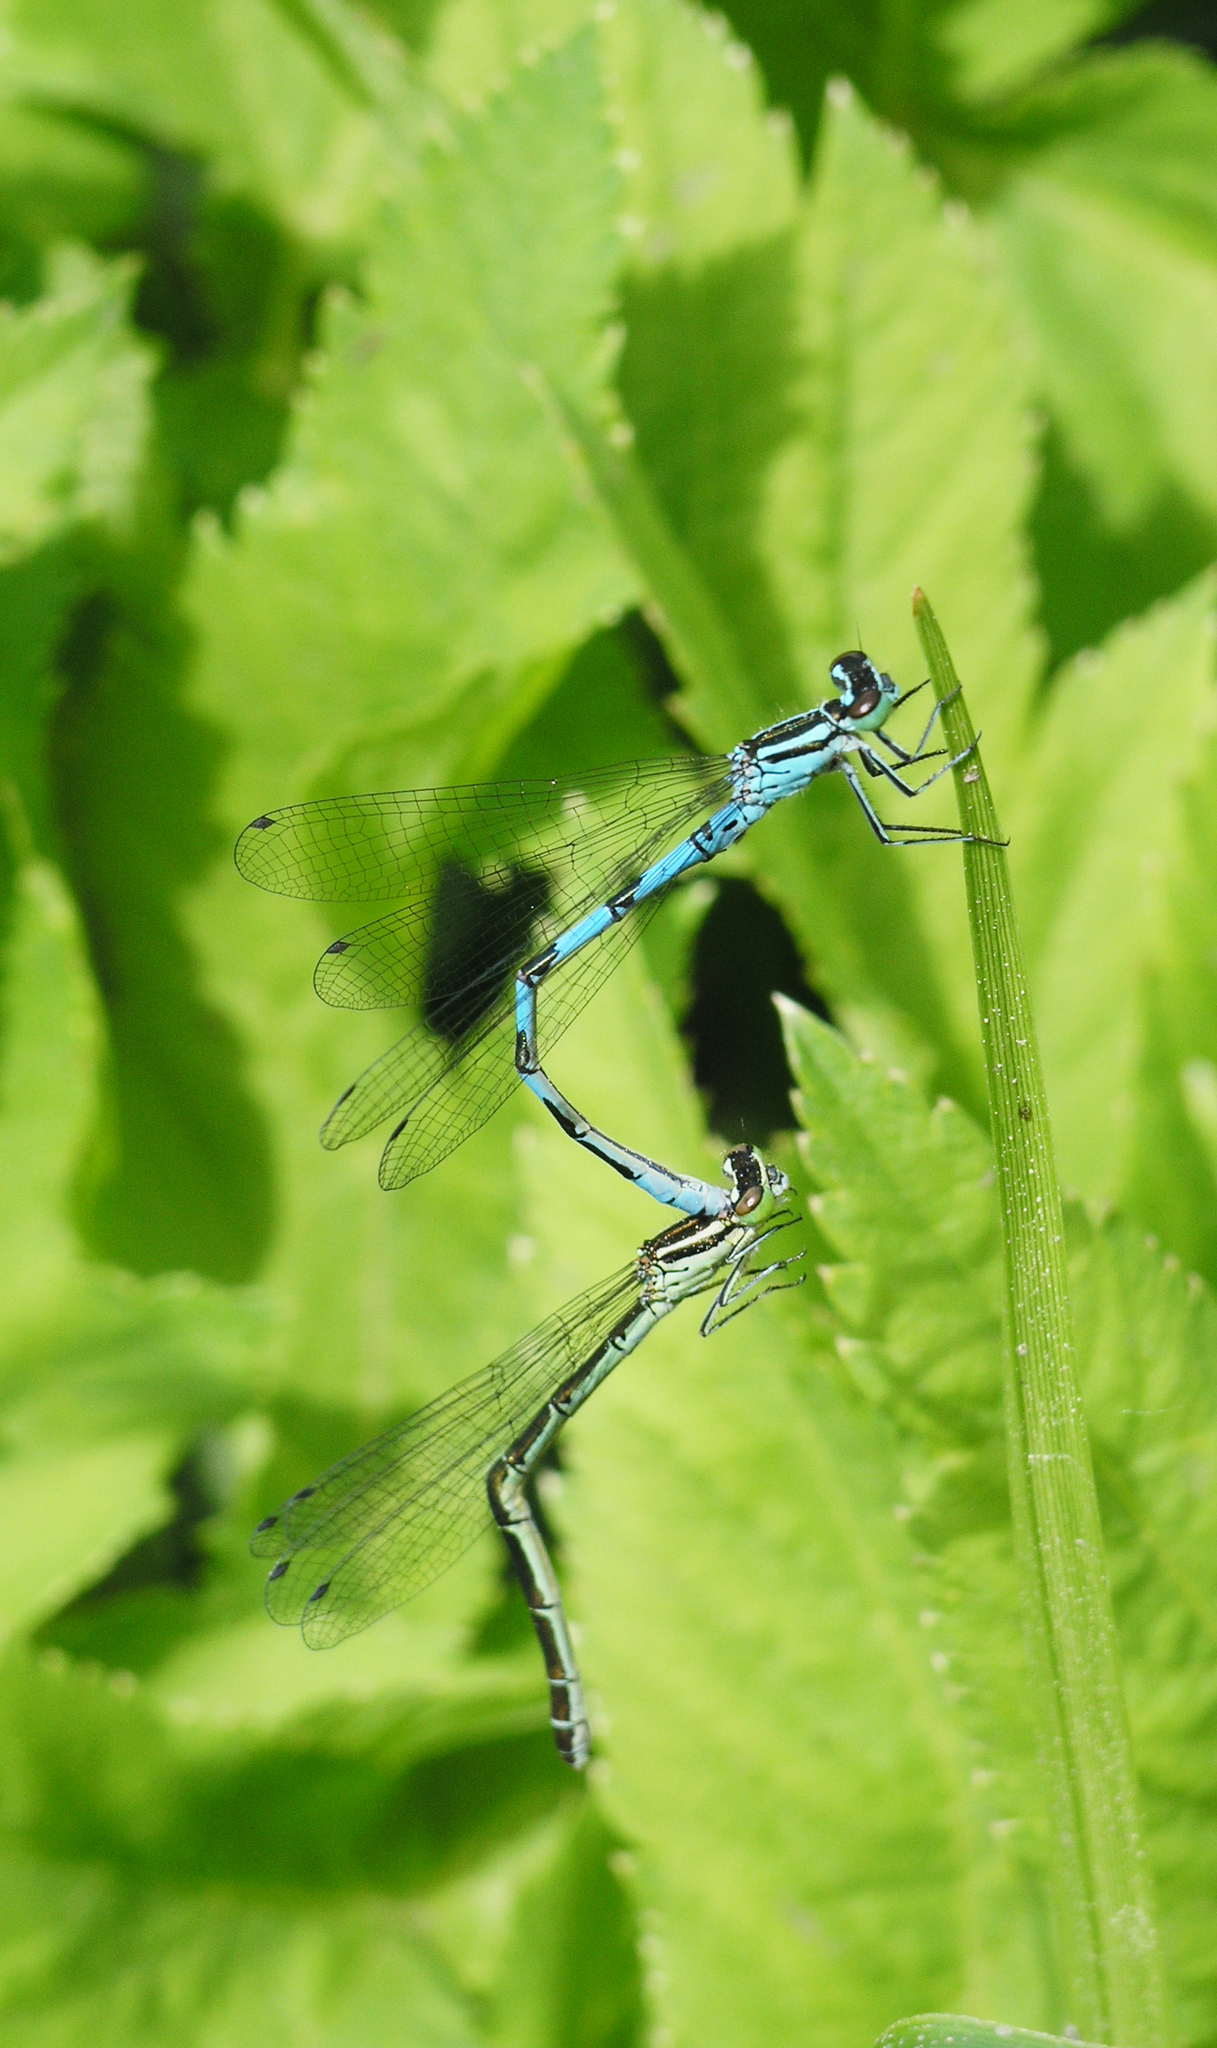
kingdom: Animalia
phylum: Arthropoda
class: Insecta
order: Odonata
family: Coenagrionidae
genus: Coenagrion
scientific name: Coenagrion hastulatum
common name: Spearhead bluet
